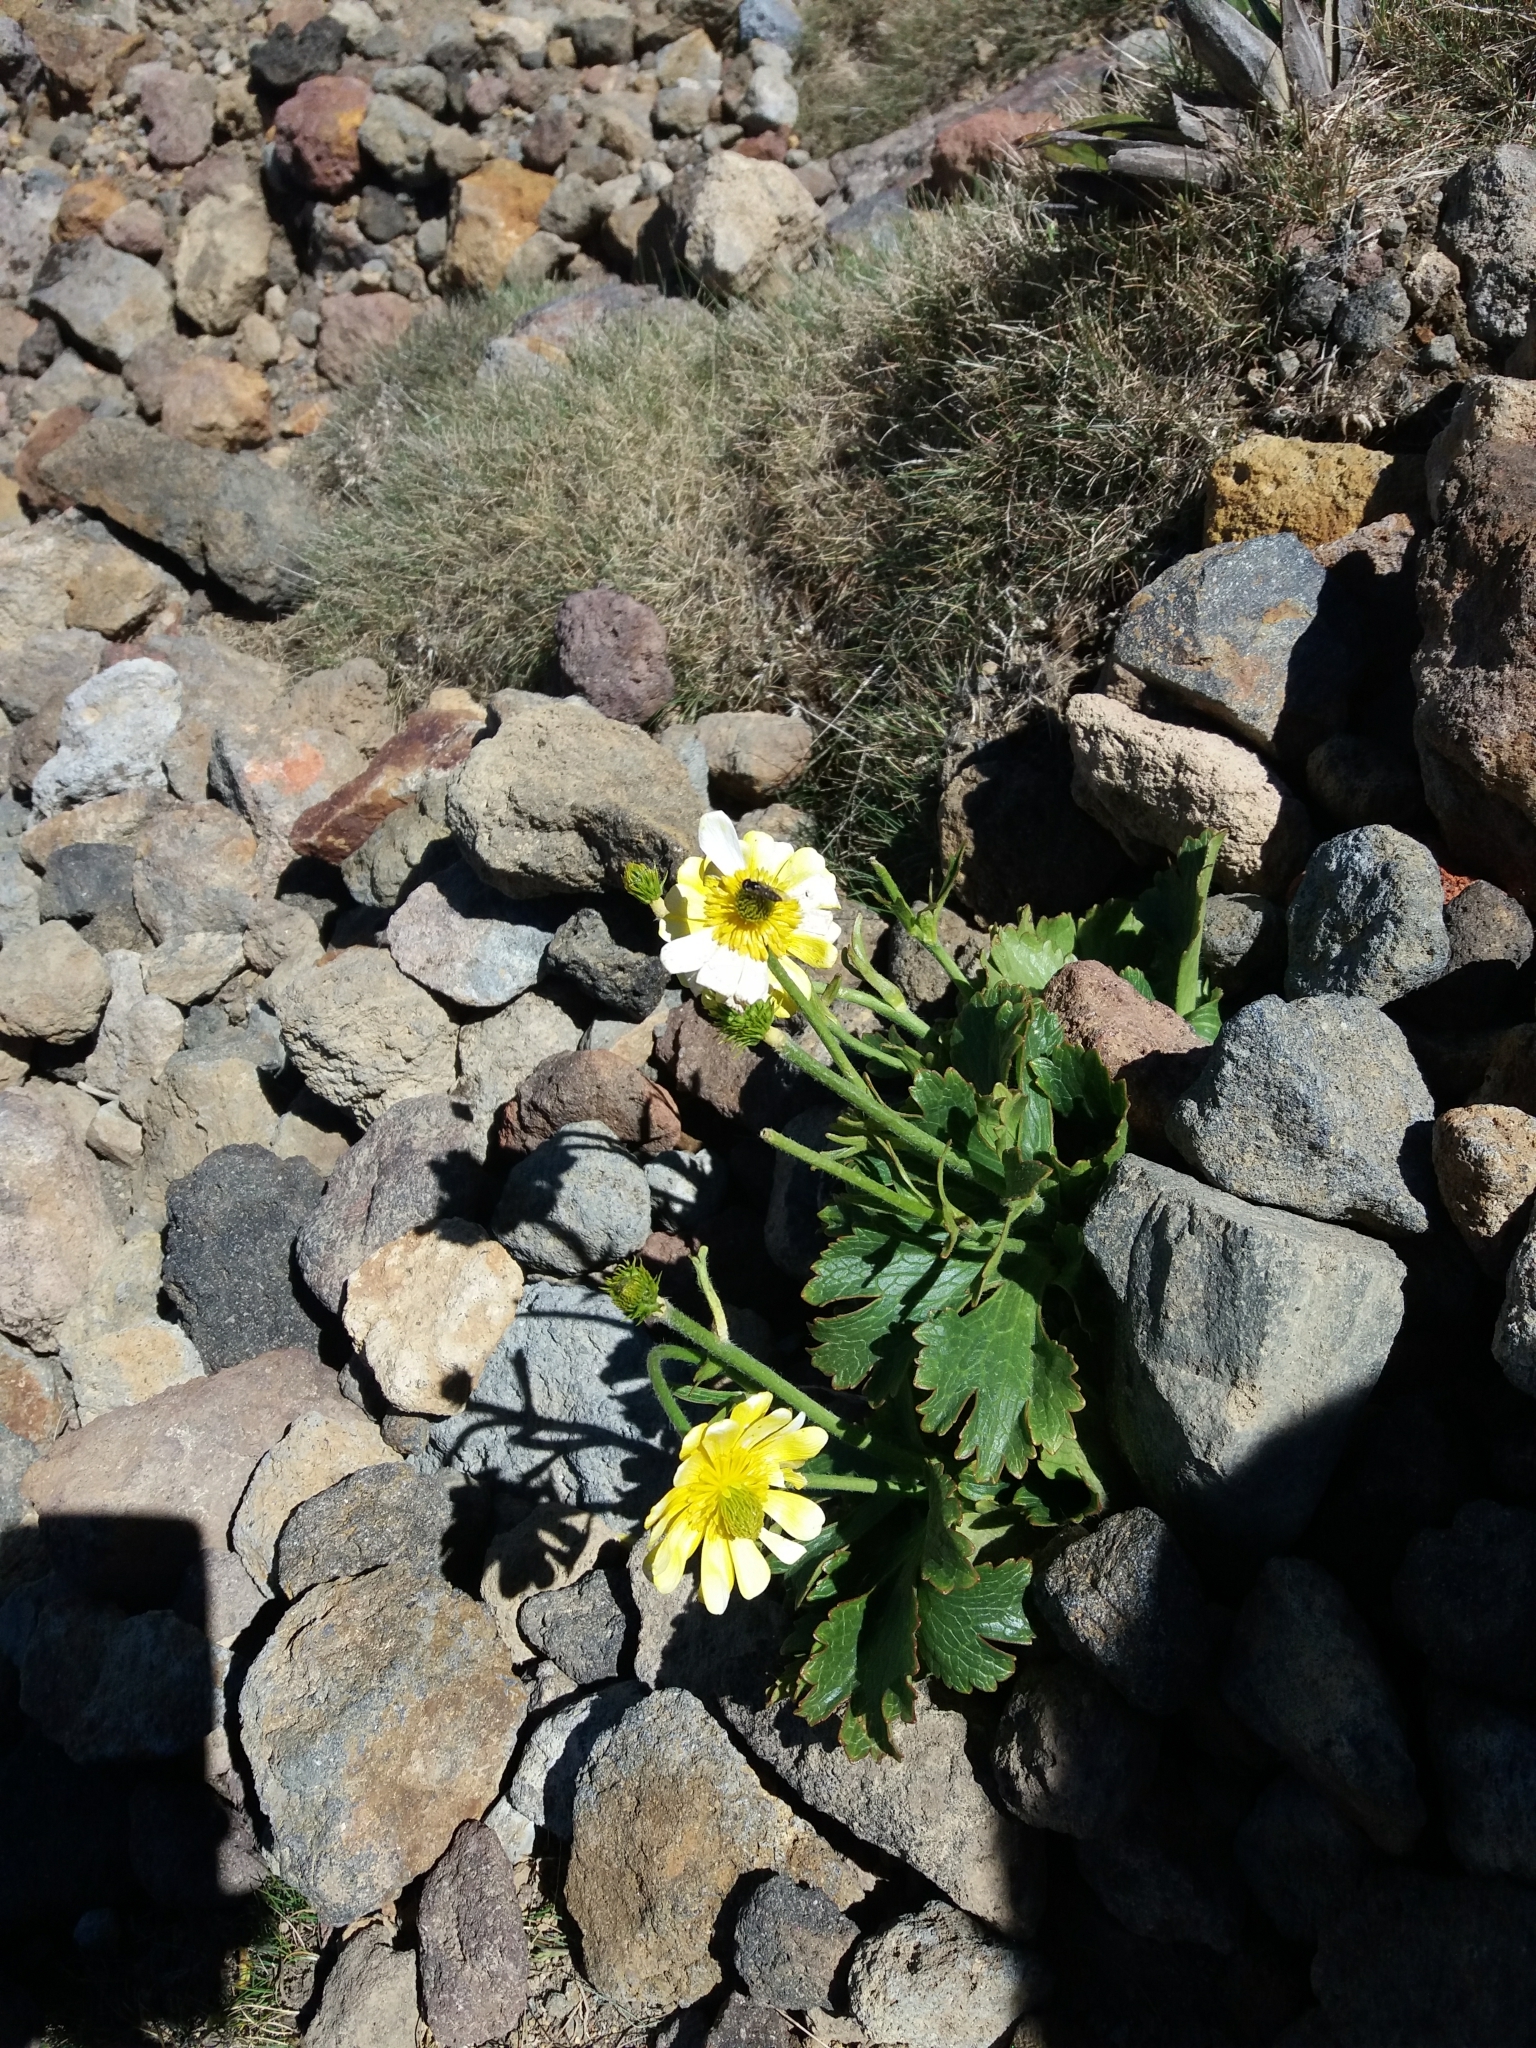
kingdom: Plantae
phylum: Tracheophyta
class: Magnoliopsida
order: Ranunculales
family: Ranunculaceae
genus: Ranunculus
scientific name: Ranunculus nivicola
